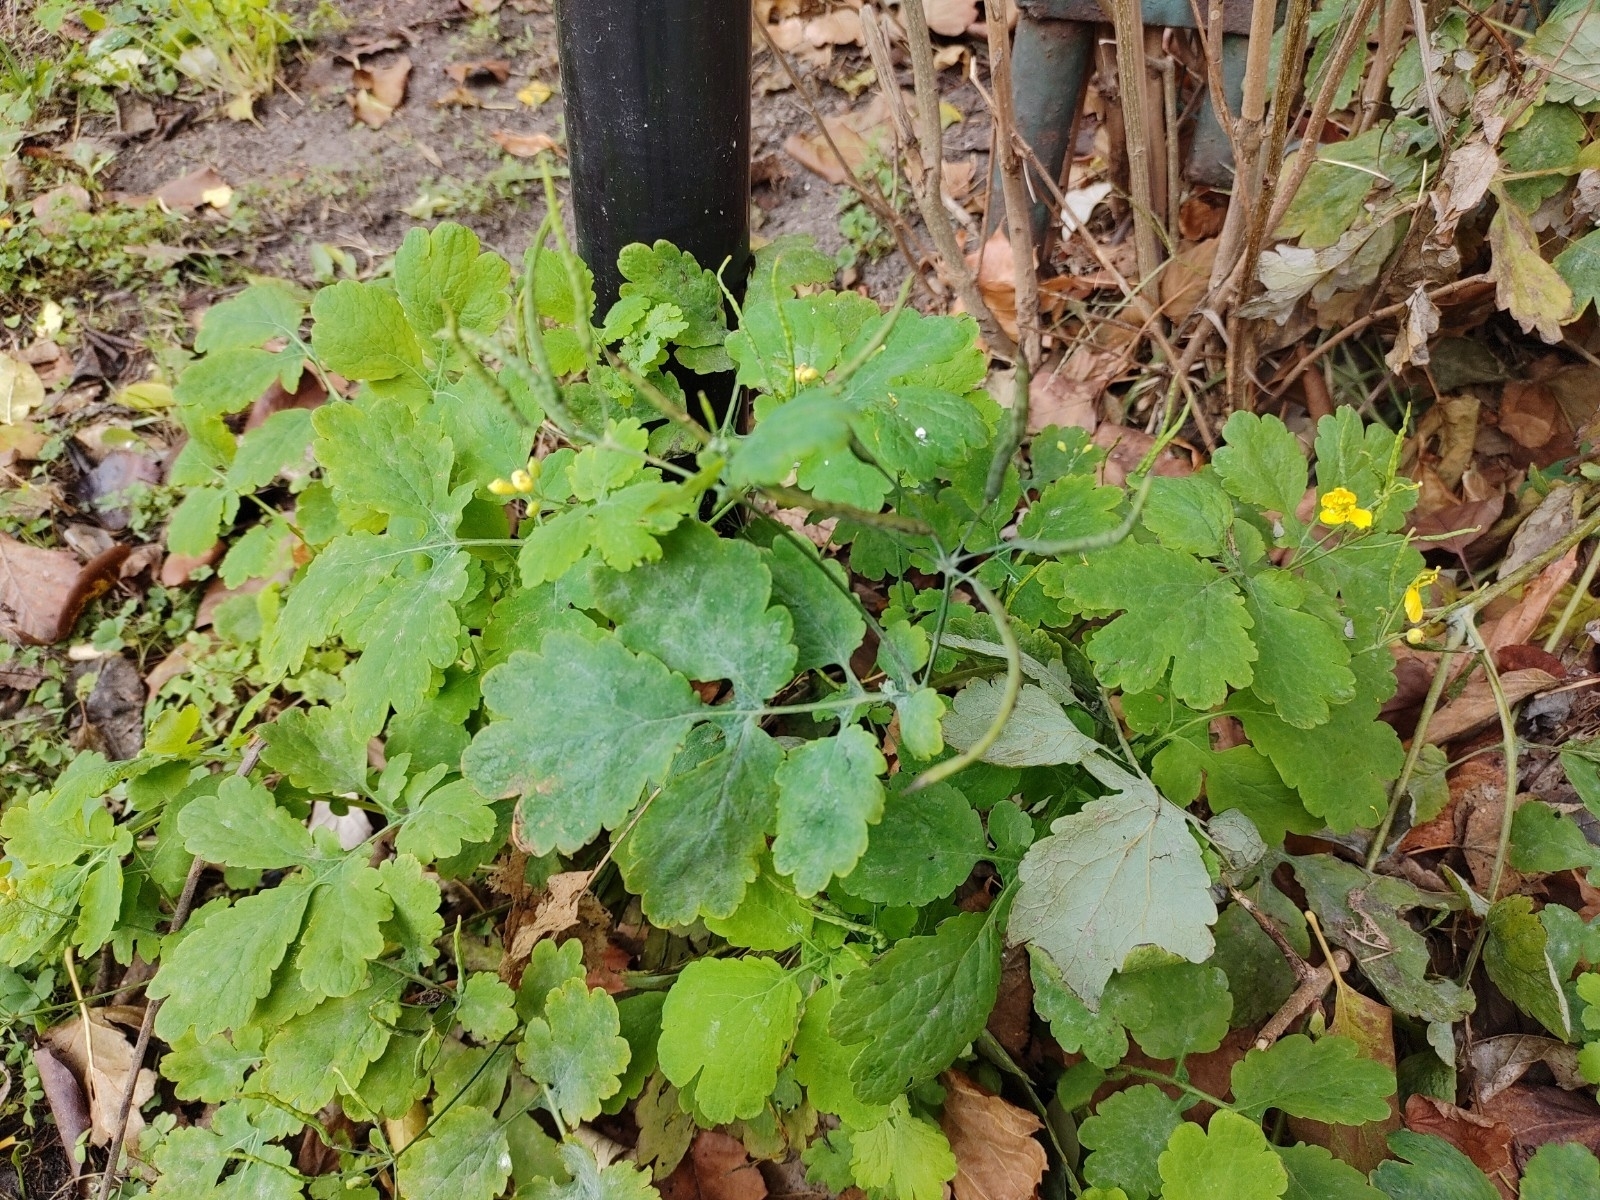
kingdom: Plantae
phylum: Tracheophyta
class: Magnoliopsida
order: Ranunculales
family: Papaveraceae
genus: Chelidonium
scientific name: Chelidonium majus
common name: Greater celandine
